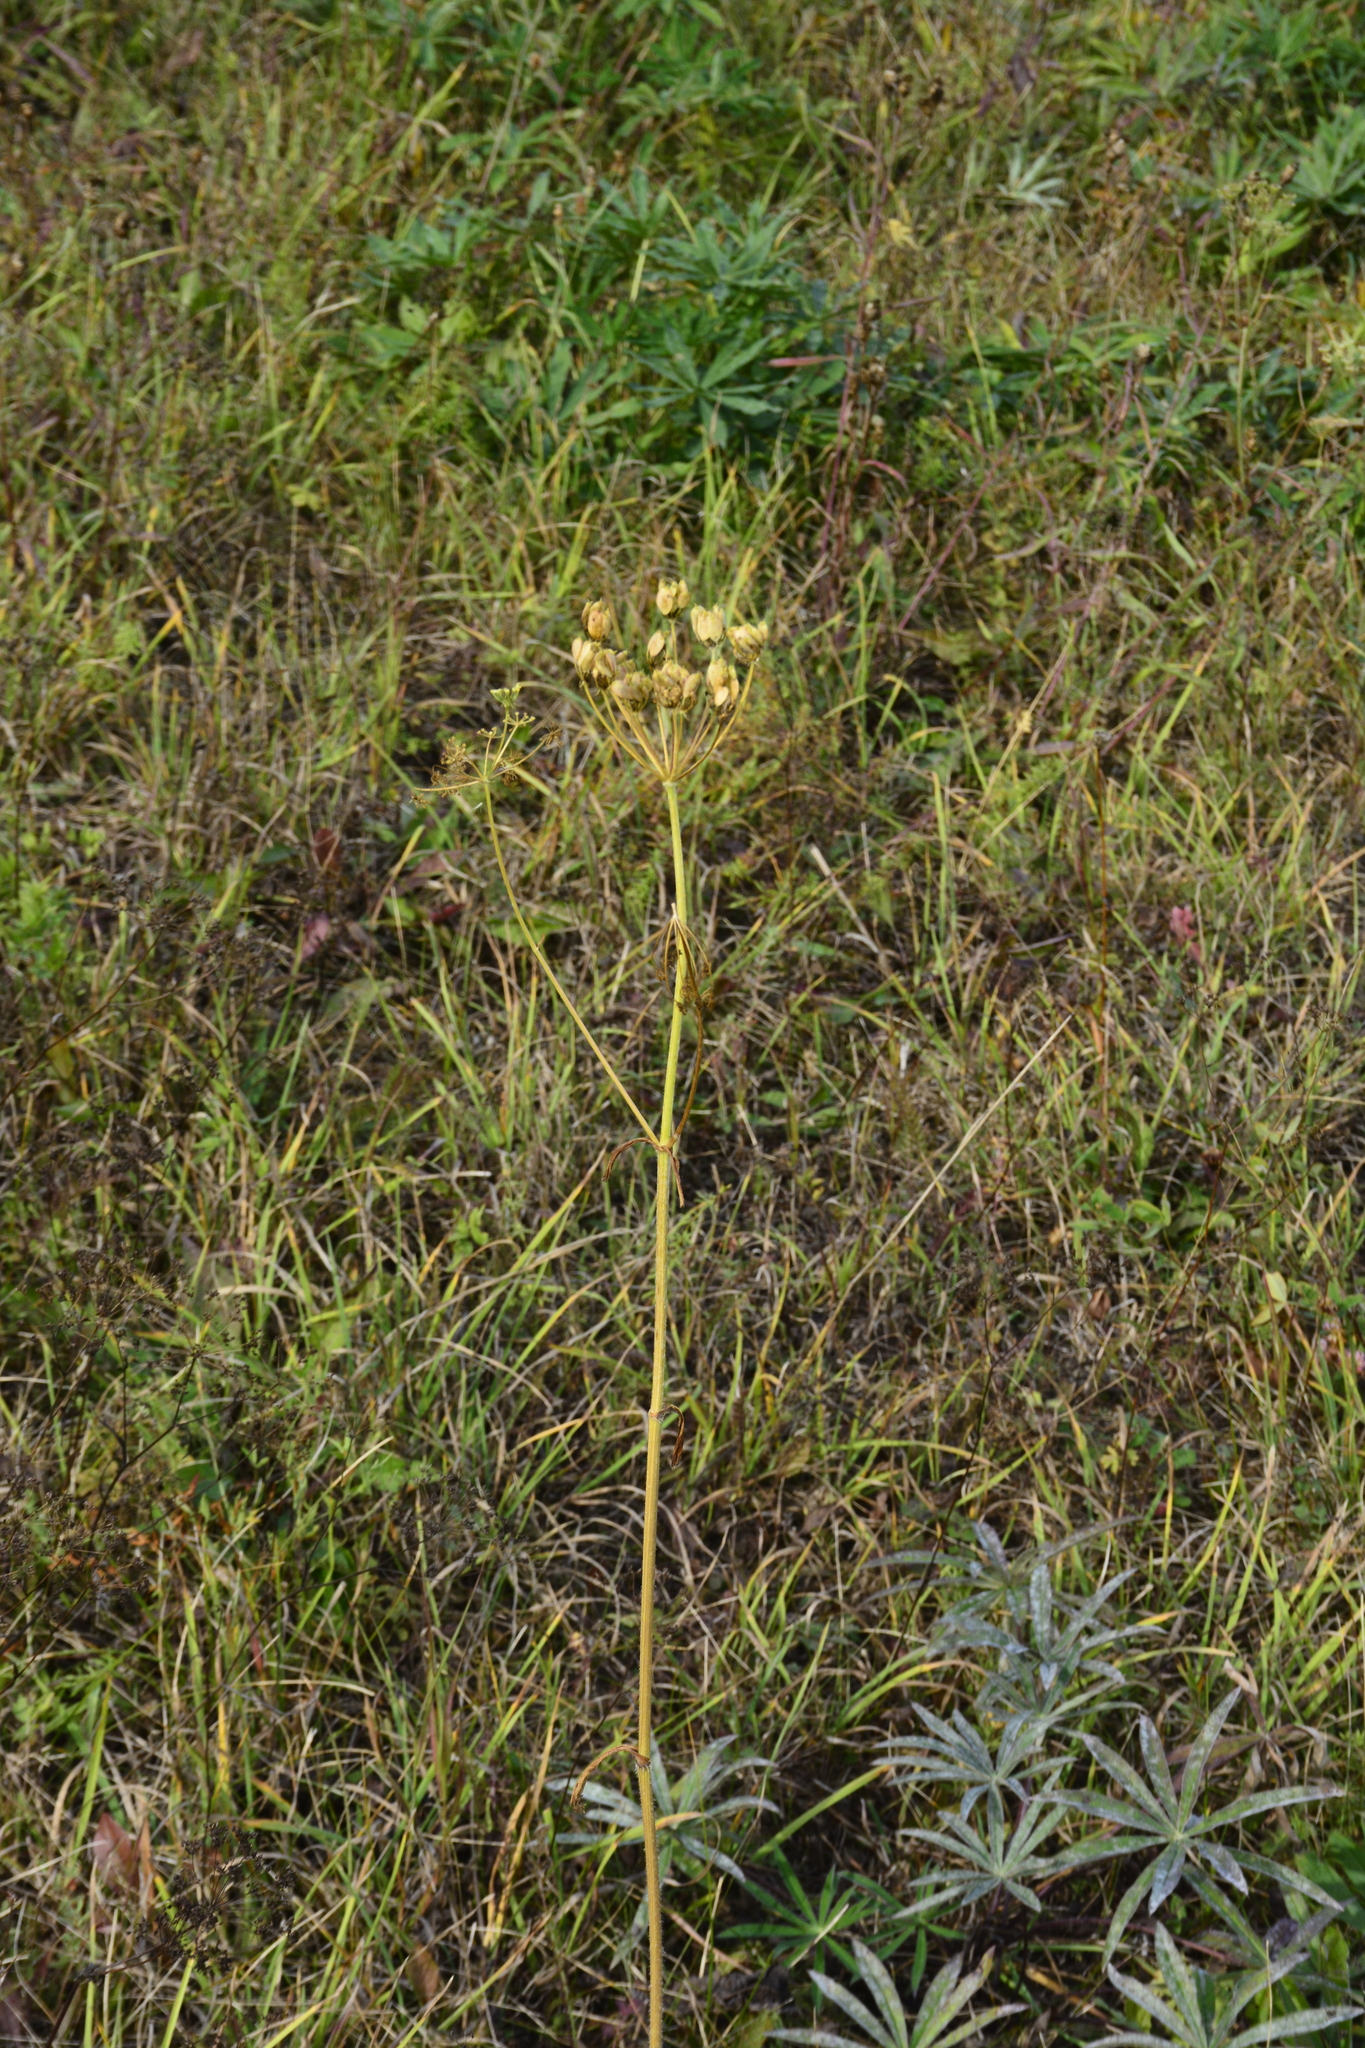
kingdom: Plantae
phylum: Tracheophyta
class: Magnoliopsida
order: Apiales
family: Apiaceae
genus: Heracleum
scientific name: Heracleum sphondylium
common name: Hogweed
